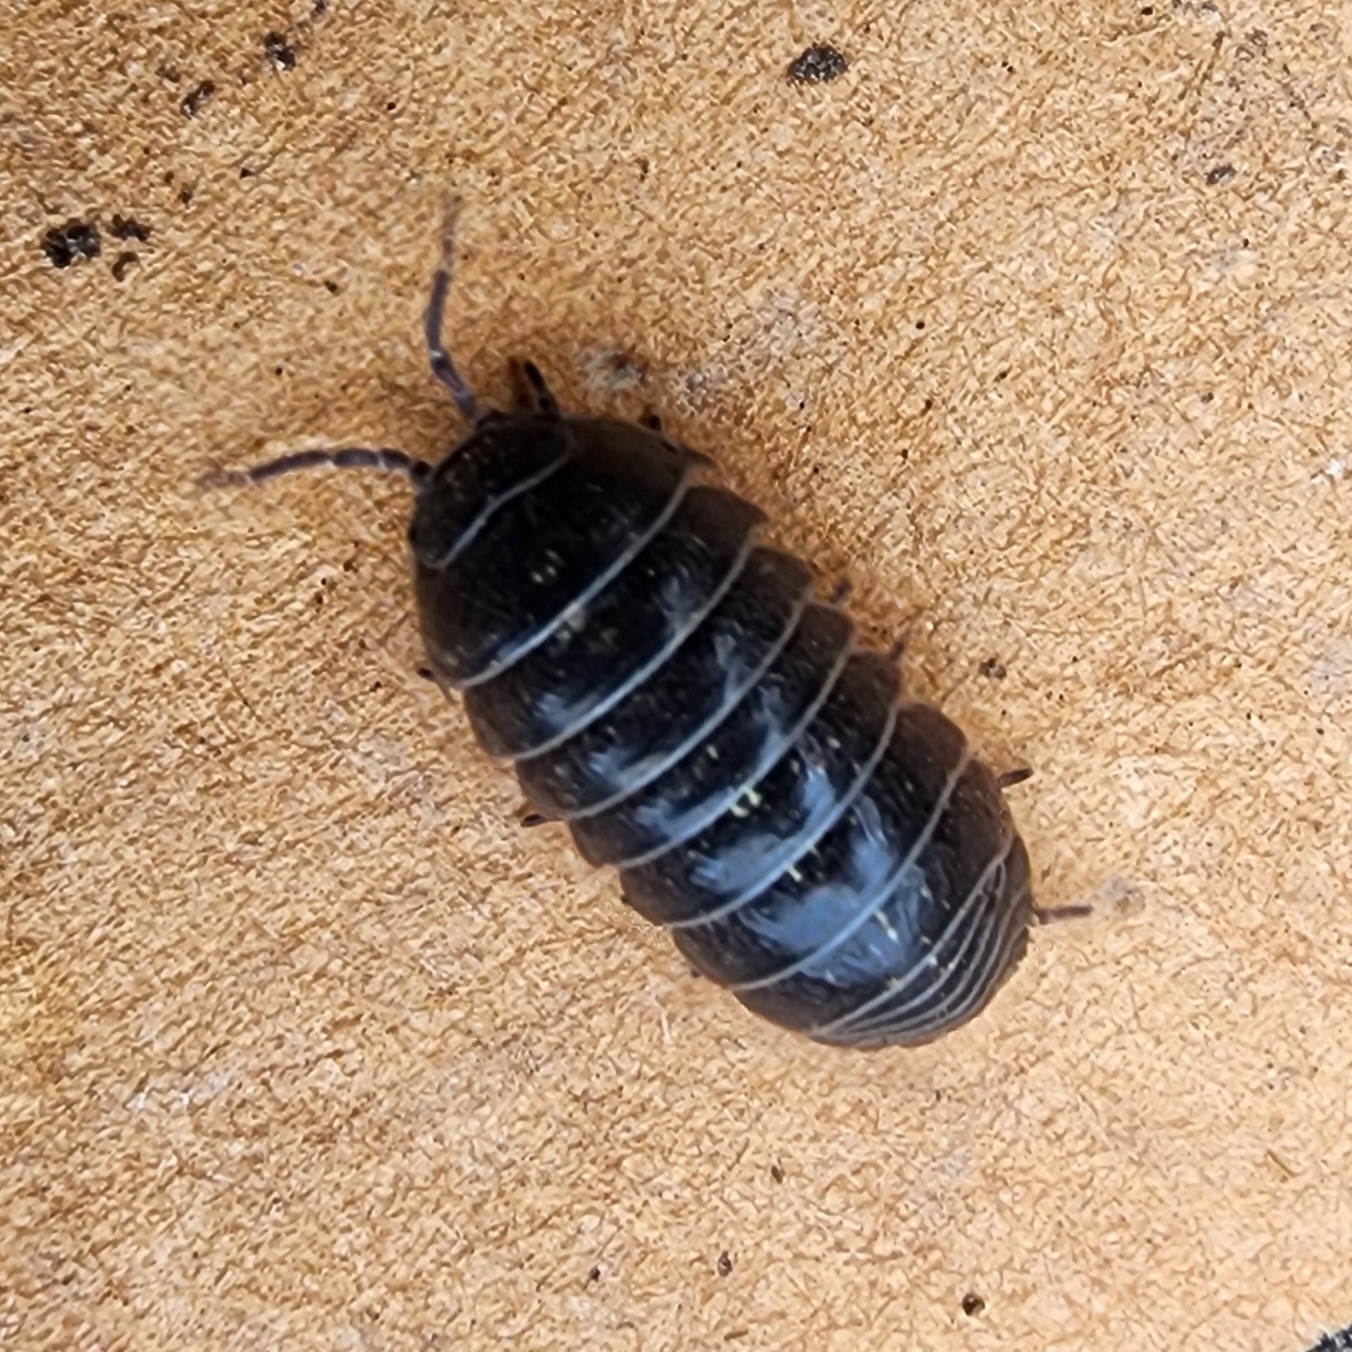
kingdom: Animalia
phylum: Arthropoda
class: Malacostraca
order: Isopoda
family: Armadillidiidae
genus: Armadillidium
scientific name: Armadillidium vulgare
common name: Common pill woodlouse
